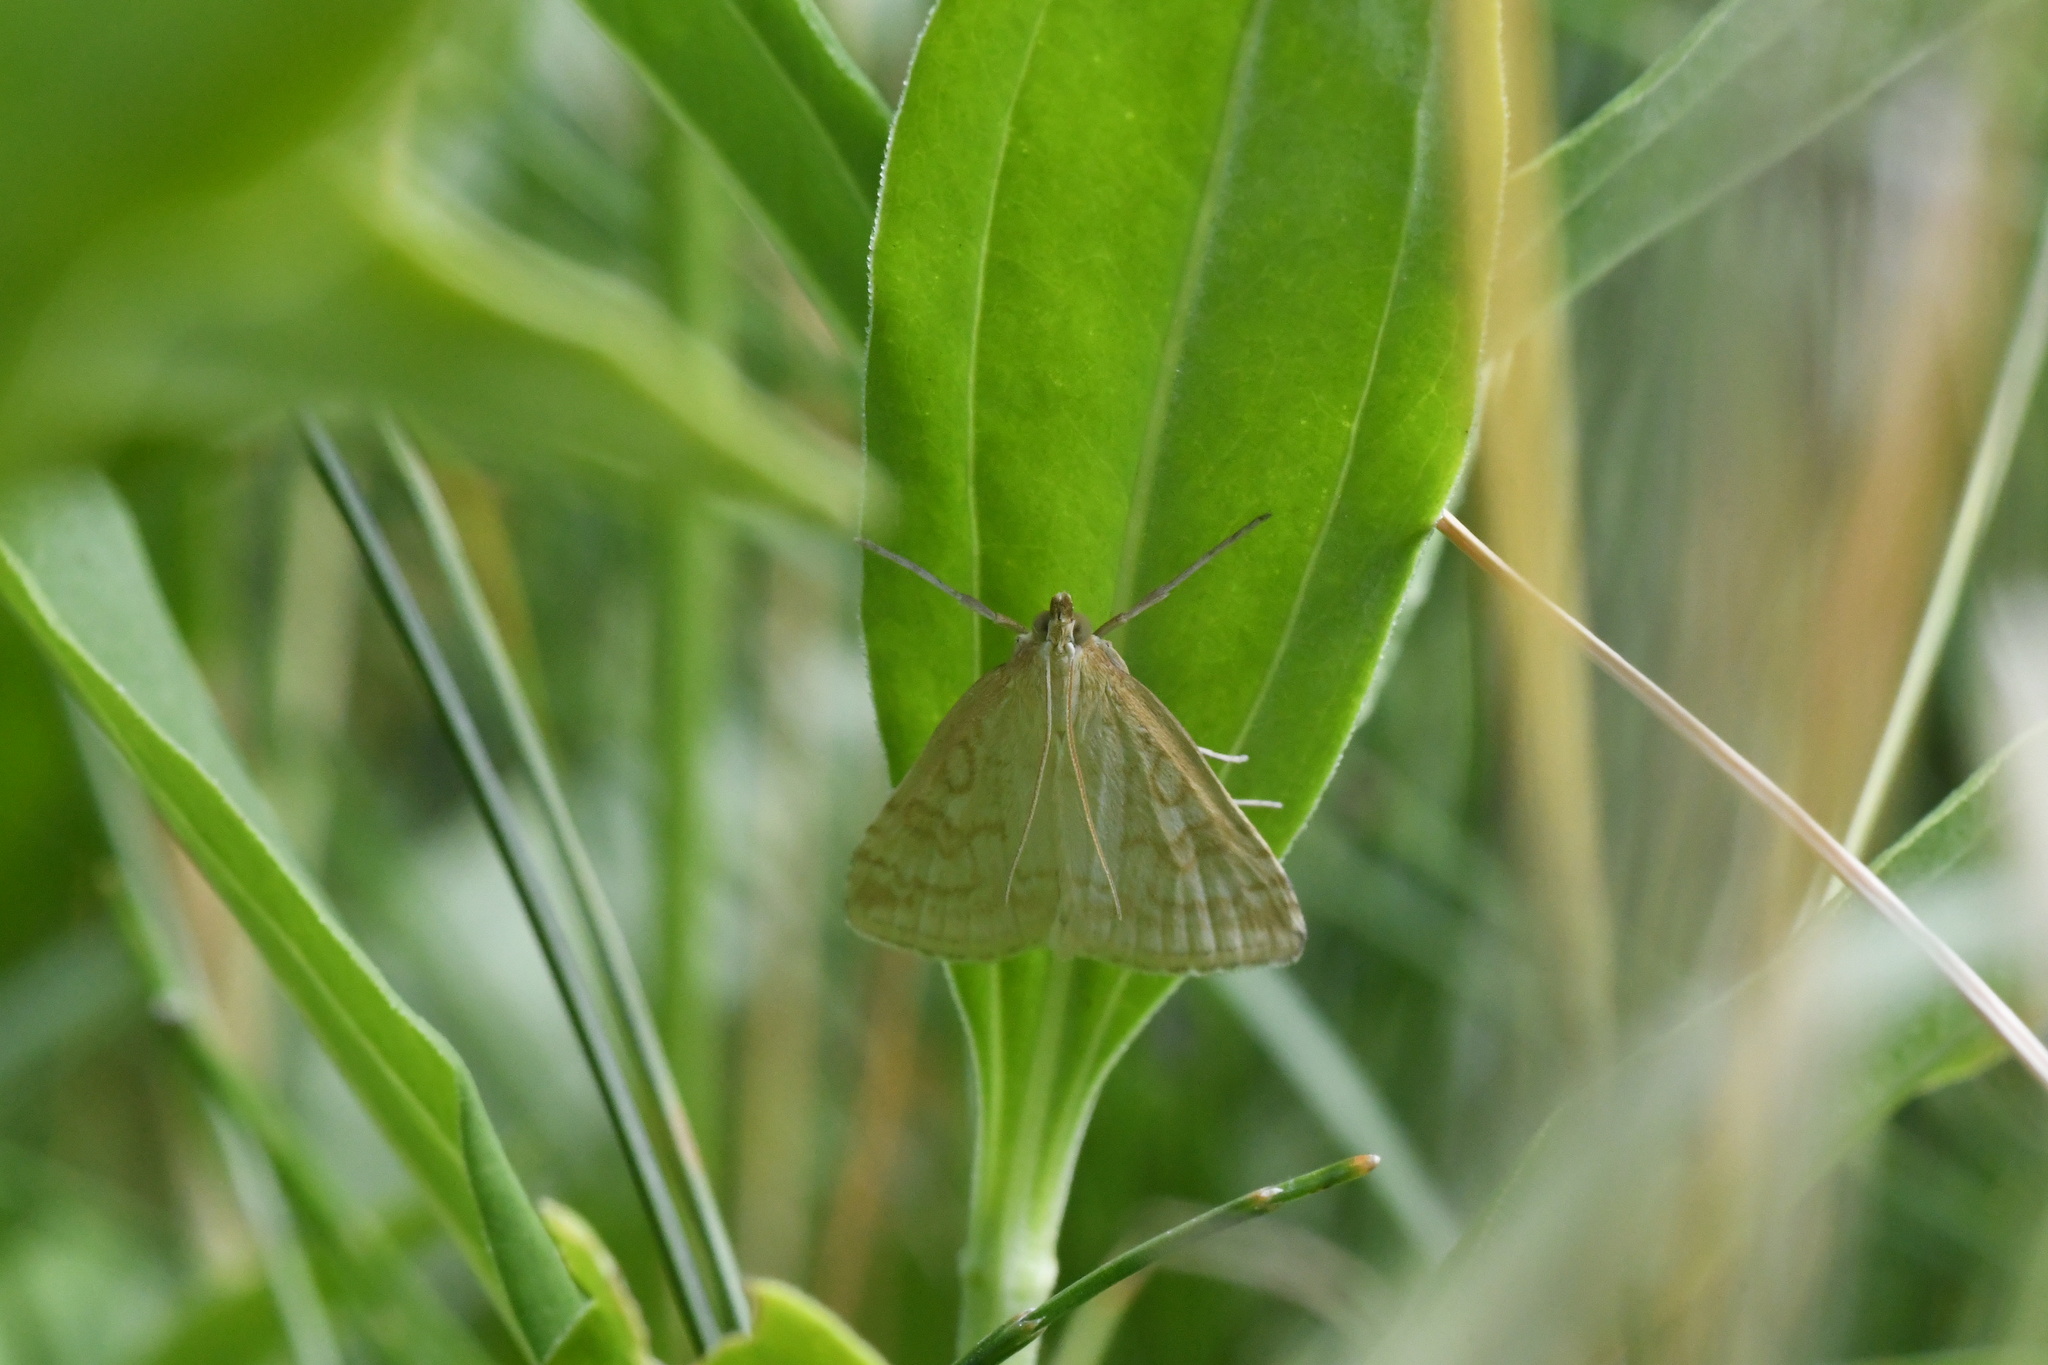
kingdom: Animalia
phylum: Arthropoda
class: Insecta
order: Lepidoptera
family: Crambidae
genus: Udea
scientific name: Udea lutealis
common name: Pale straw pearl
